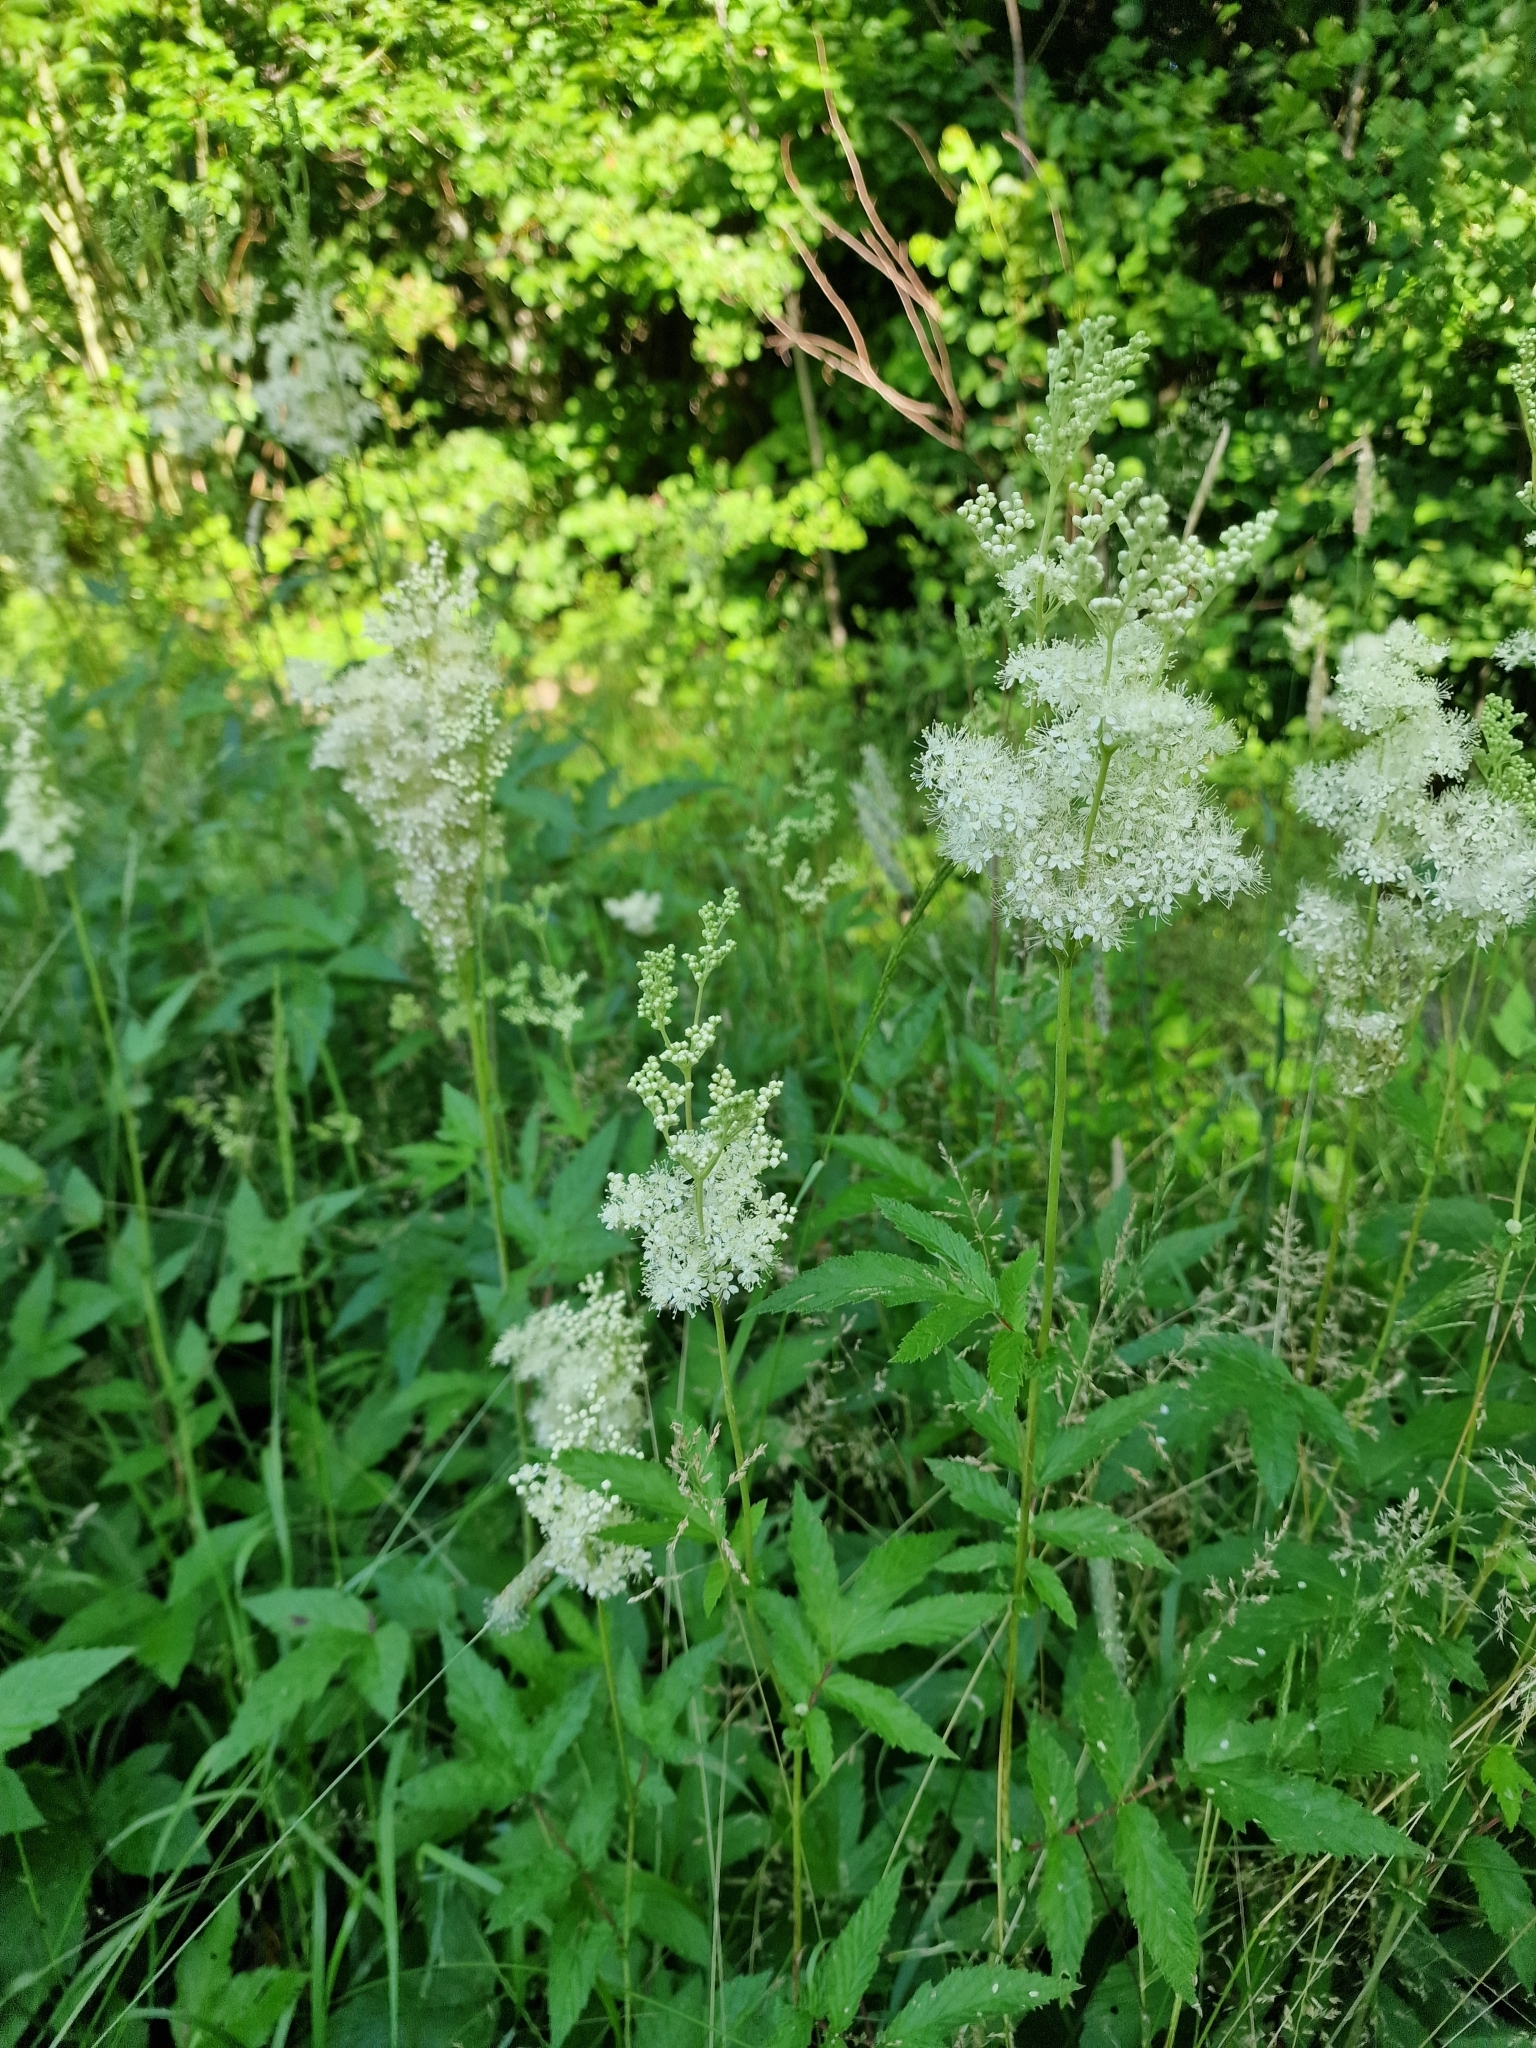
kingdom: Plantae
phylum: Tracheophyta
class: Magnoliopsida
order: Rosales
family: Rosaceae
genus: Filipendula
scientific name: Filipendula ulmaria
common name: Meadowsweet
